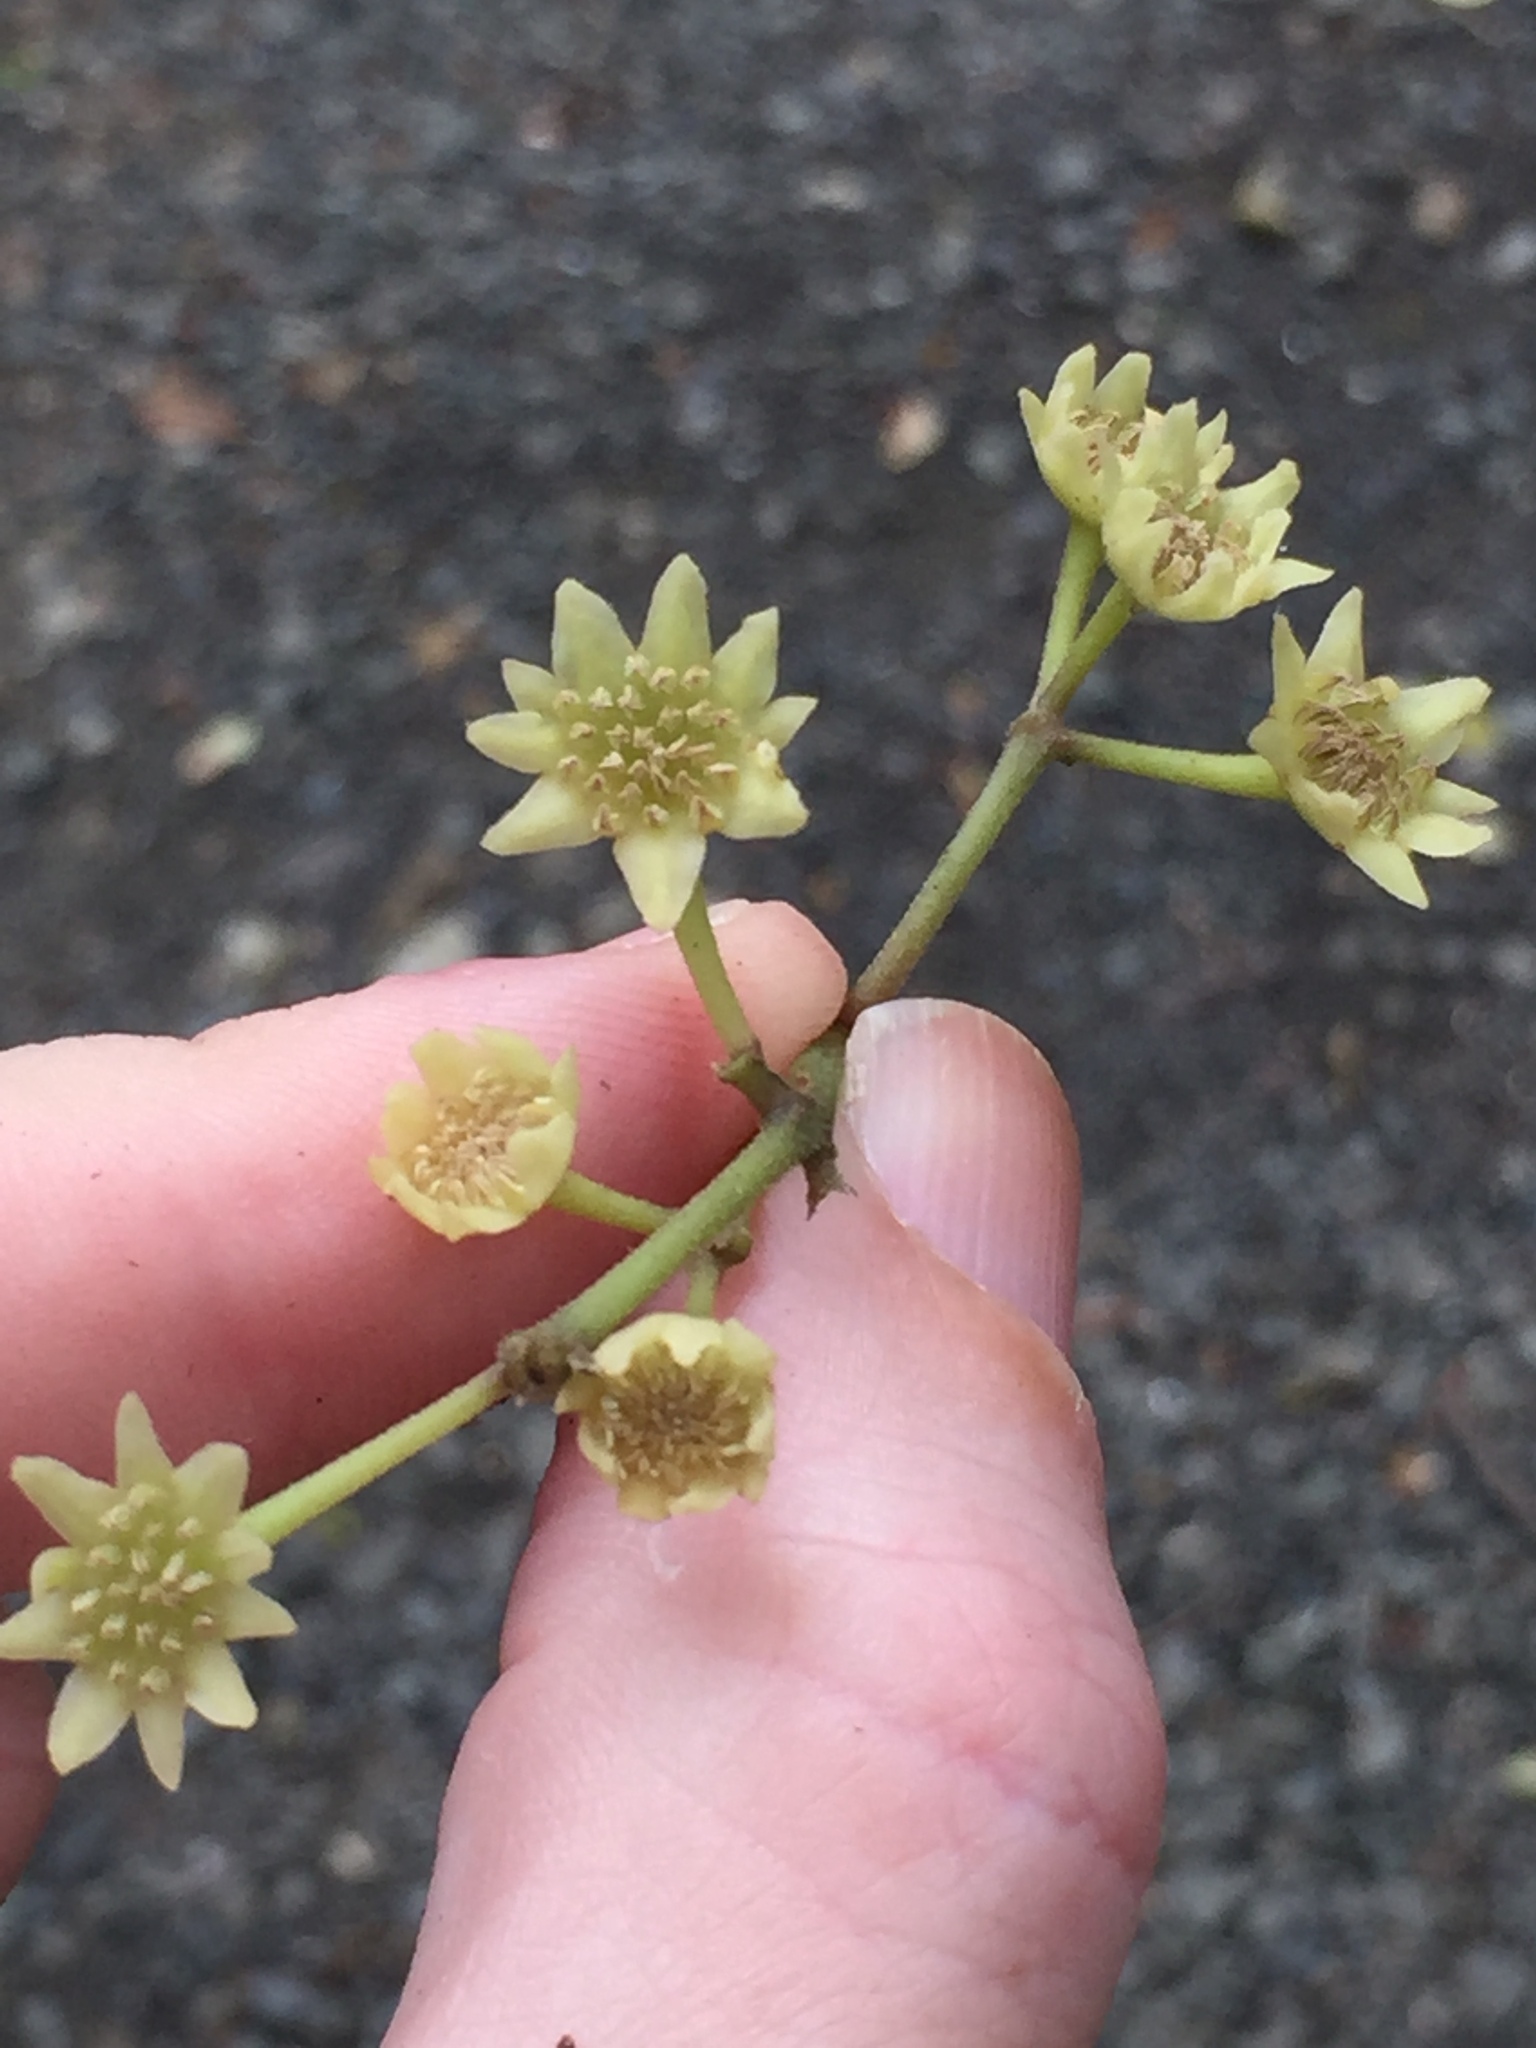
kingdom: Plantae
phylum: Tracheophyta
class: Magnoliopsida
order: Laurales
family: Monimiaceae
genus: Hedycarya
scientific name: Hedycarya arborea
